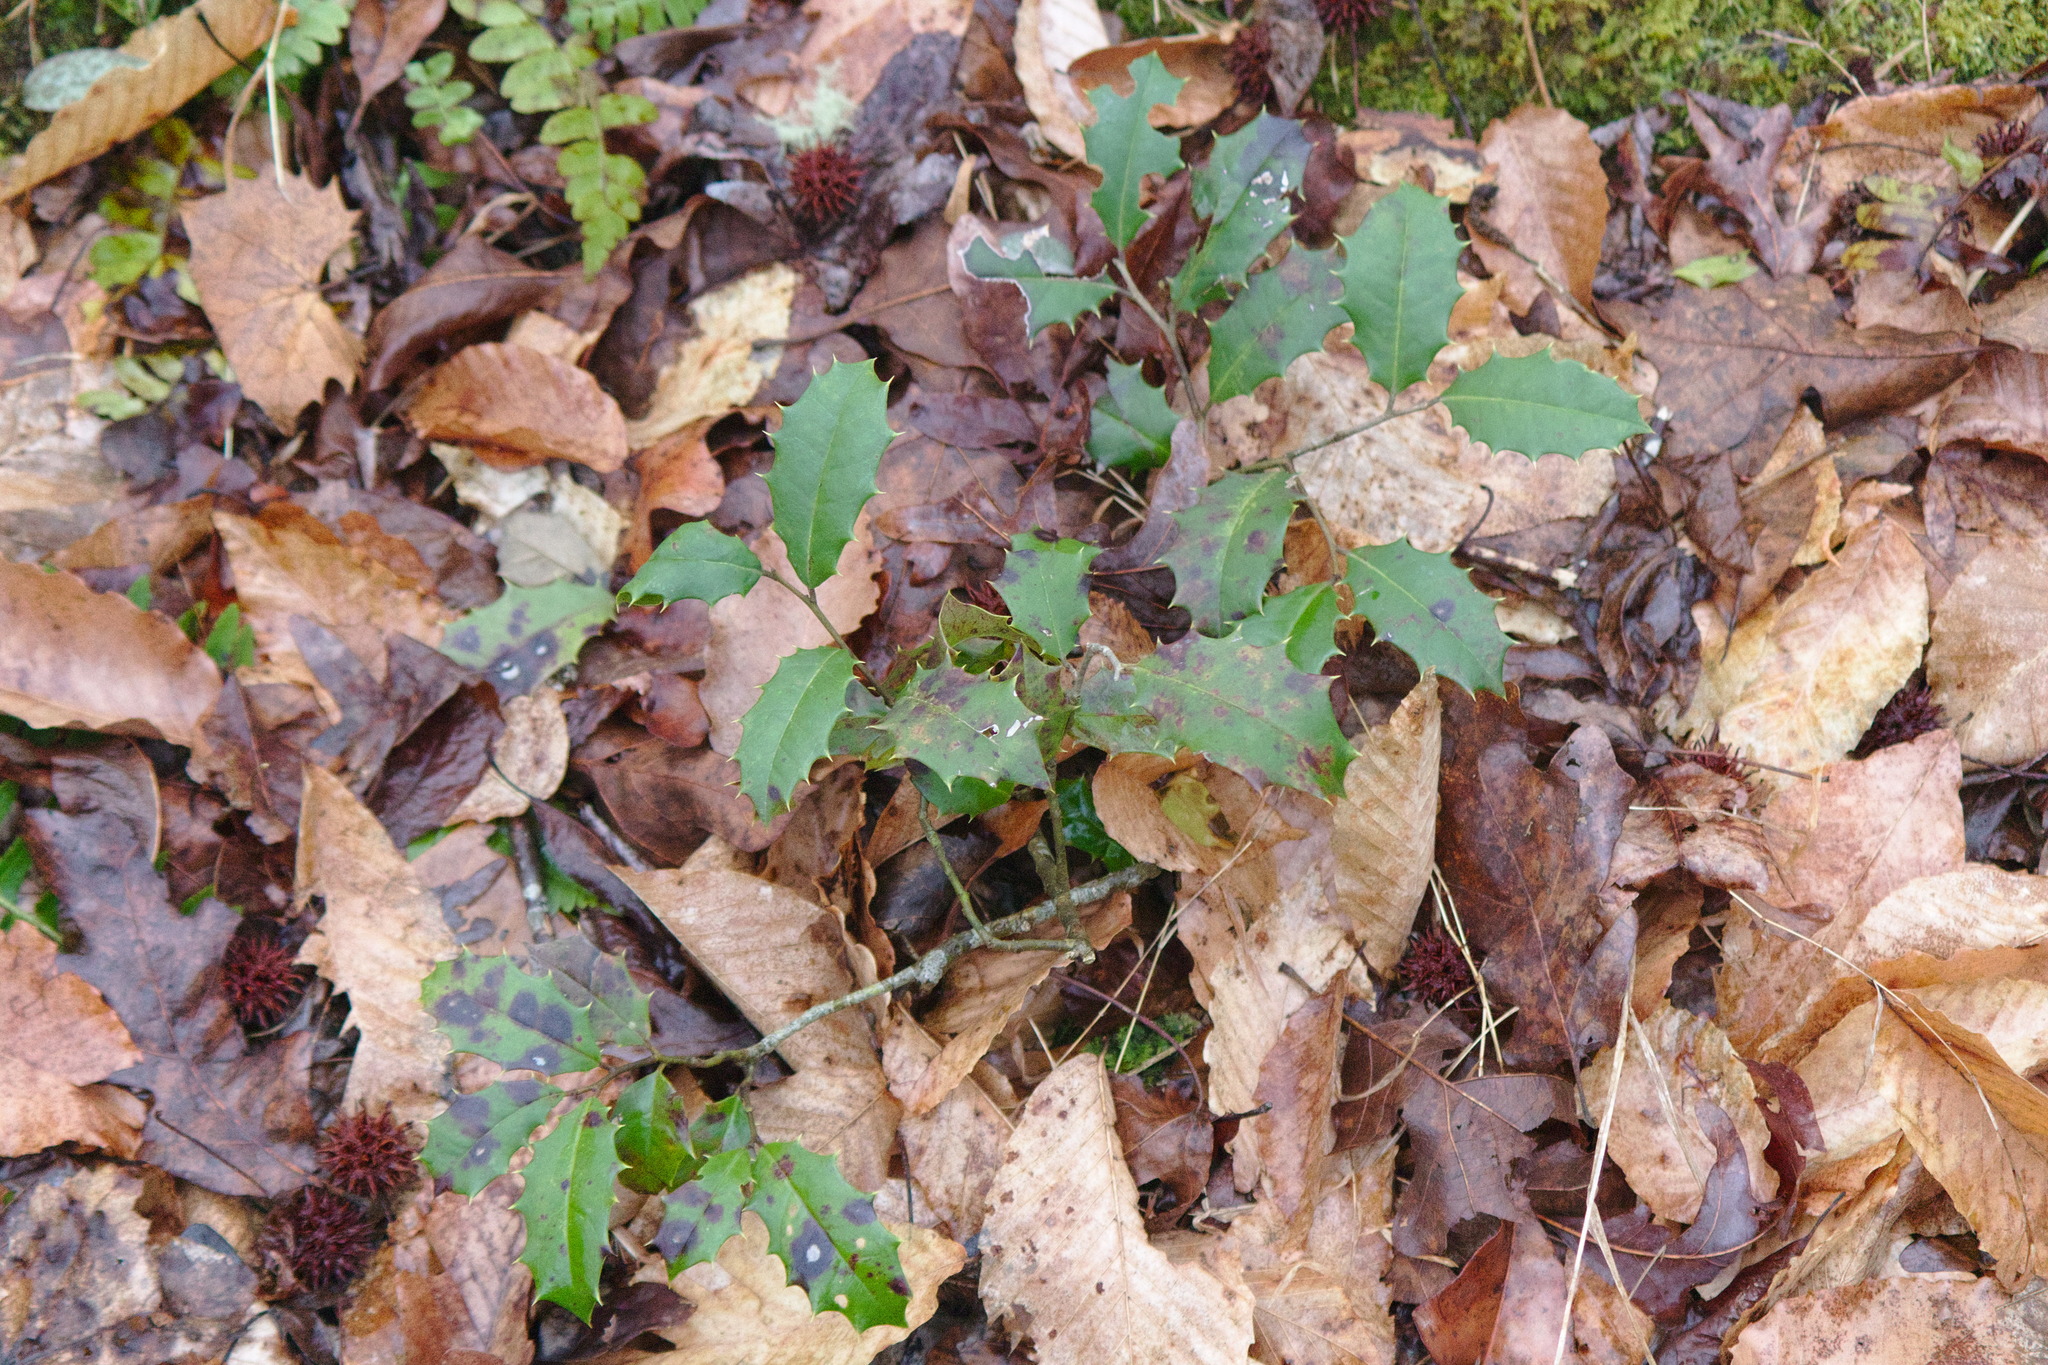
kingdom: Plantae
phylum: Tracheophyta
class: Magnoliopsida
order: Aquifoliales
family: Aquifoliaceae
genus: Ilex
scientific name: Ilex opaca
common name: American holly
